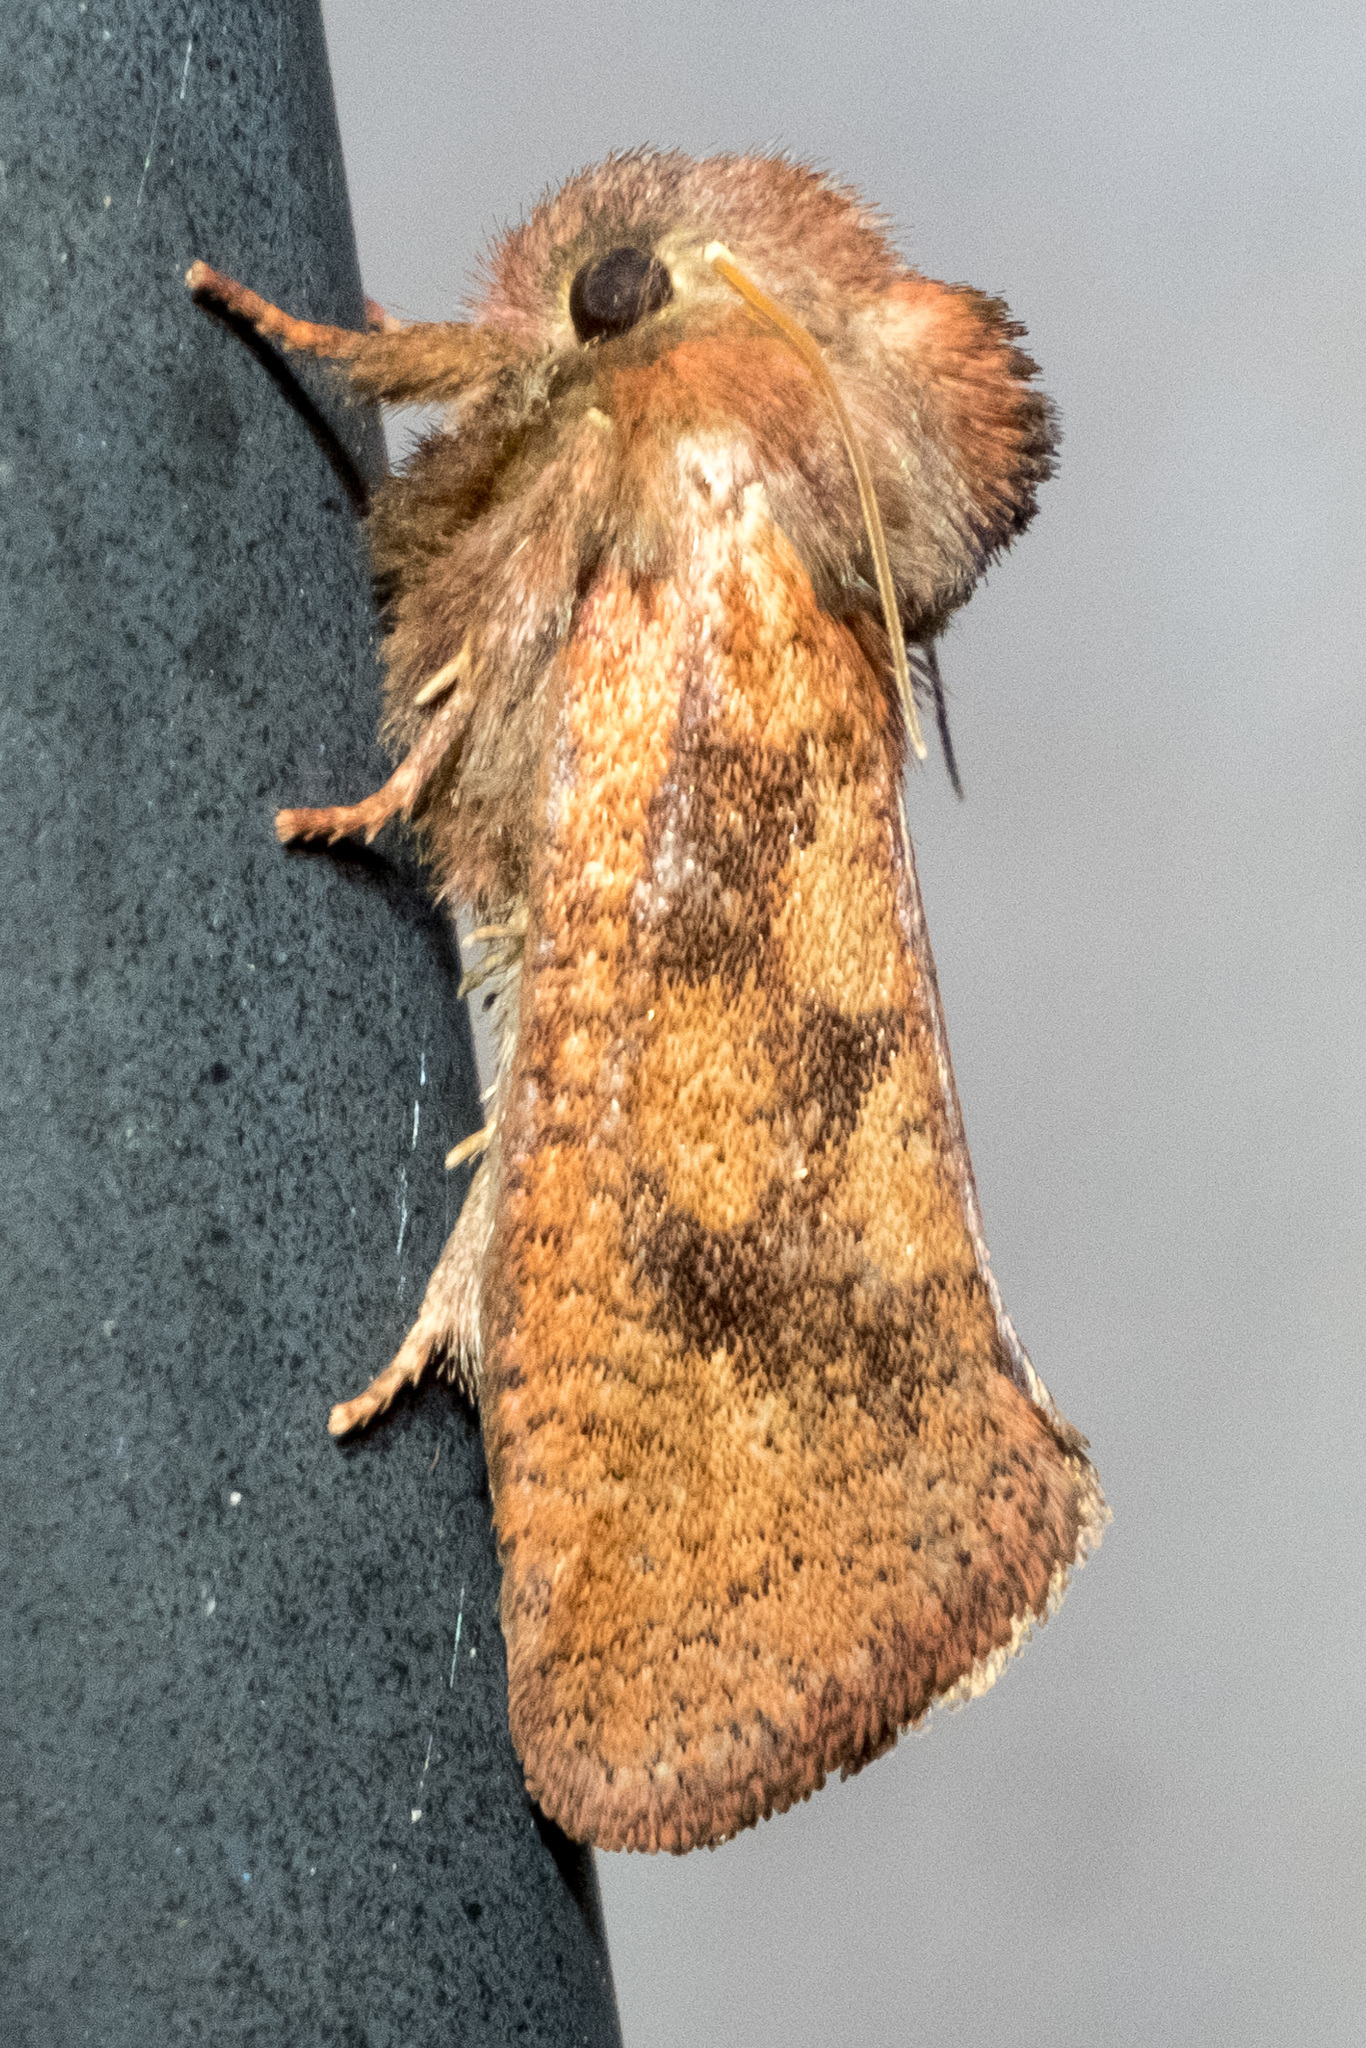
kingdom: Animalia
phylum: Arthropoda
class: Insecta
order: Lepidoptera
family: Tineidae
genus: Acrolophus
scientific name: Acrolophus plumifrontella
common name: Eastern grass tubeworm moth
